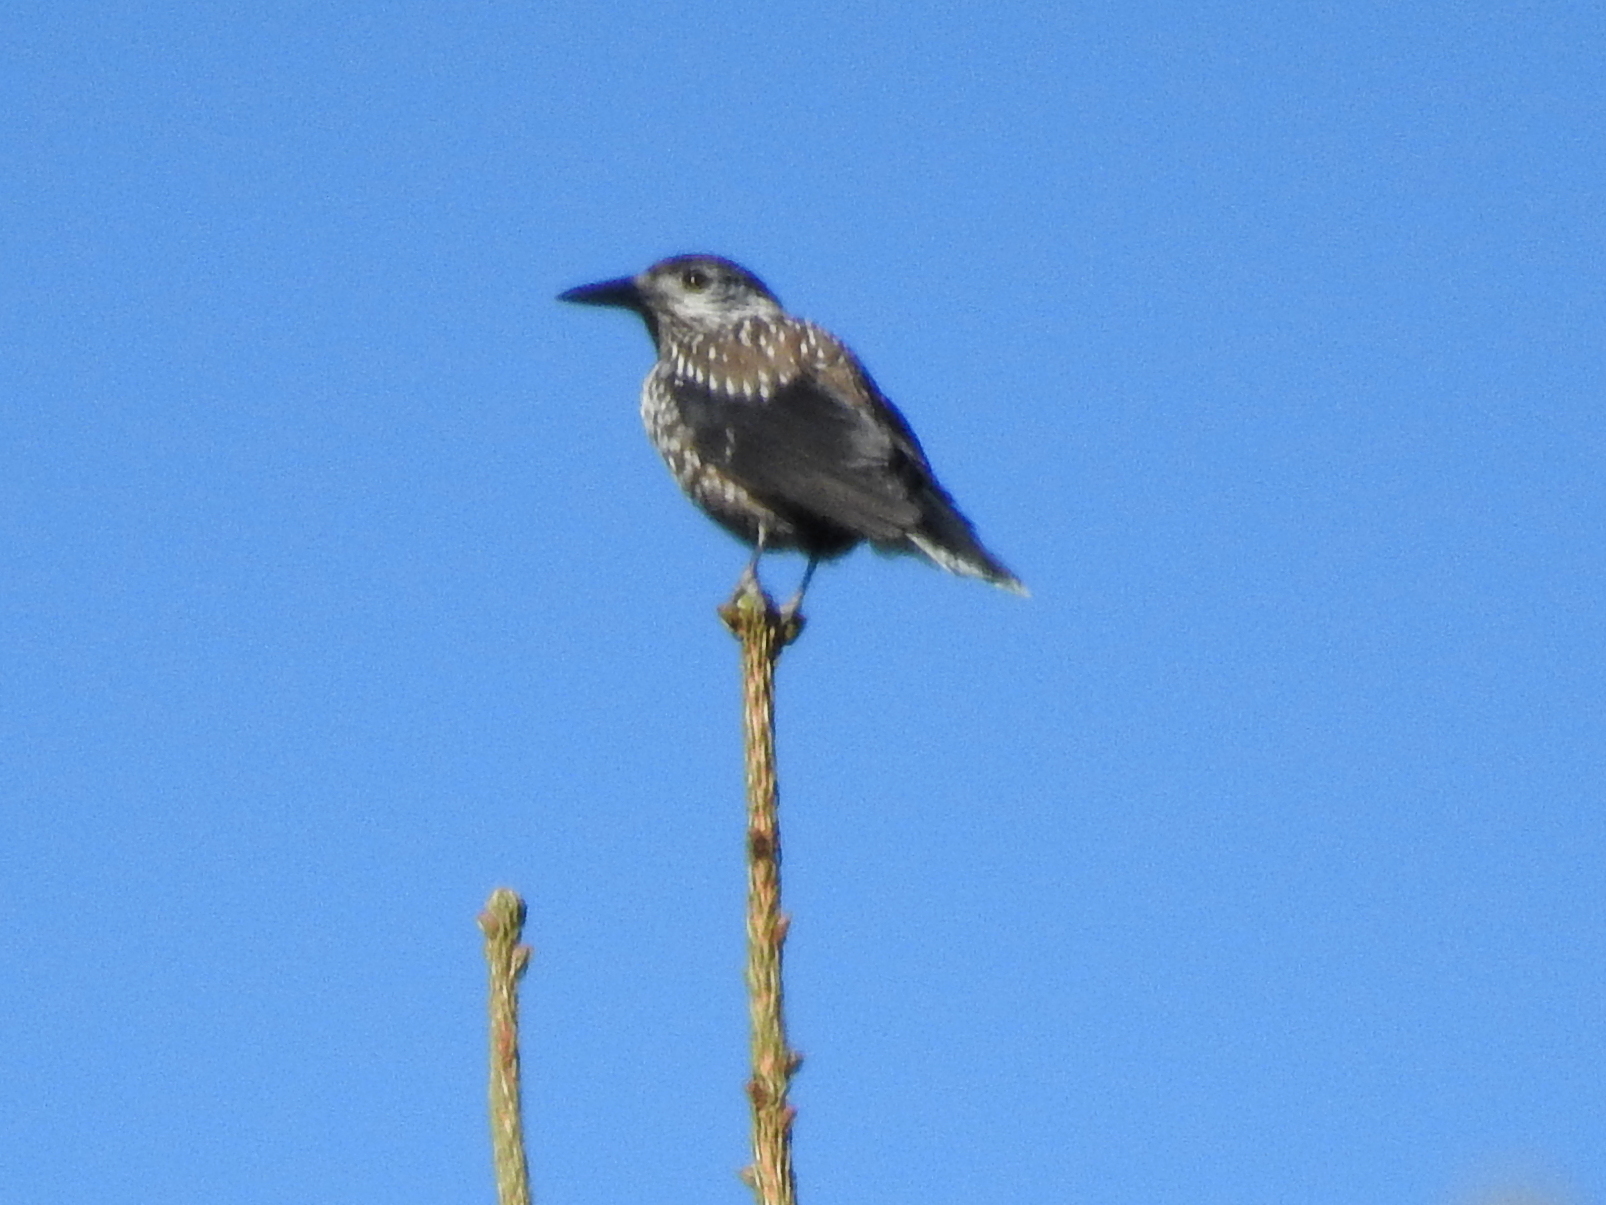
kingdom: Animalia
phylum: Chordata
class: Aves
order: Passeriformes
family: Corvidae
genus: Nucifraga
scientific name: Nucifraga caryocatactes
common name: Spotted nutcracker
